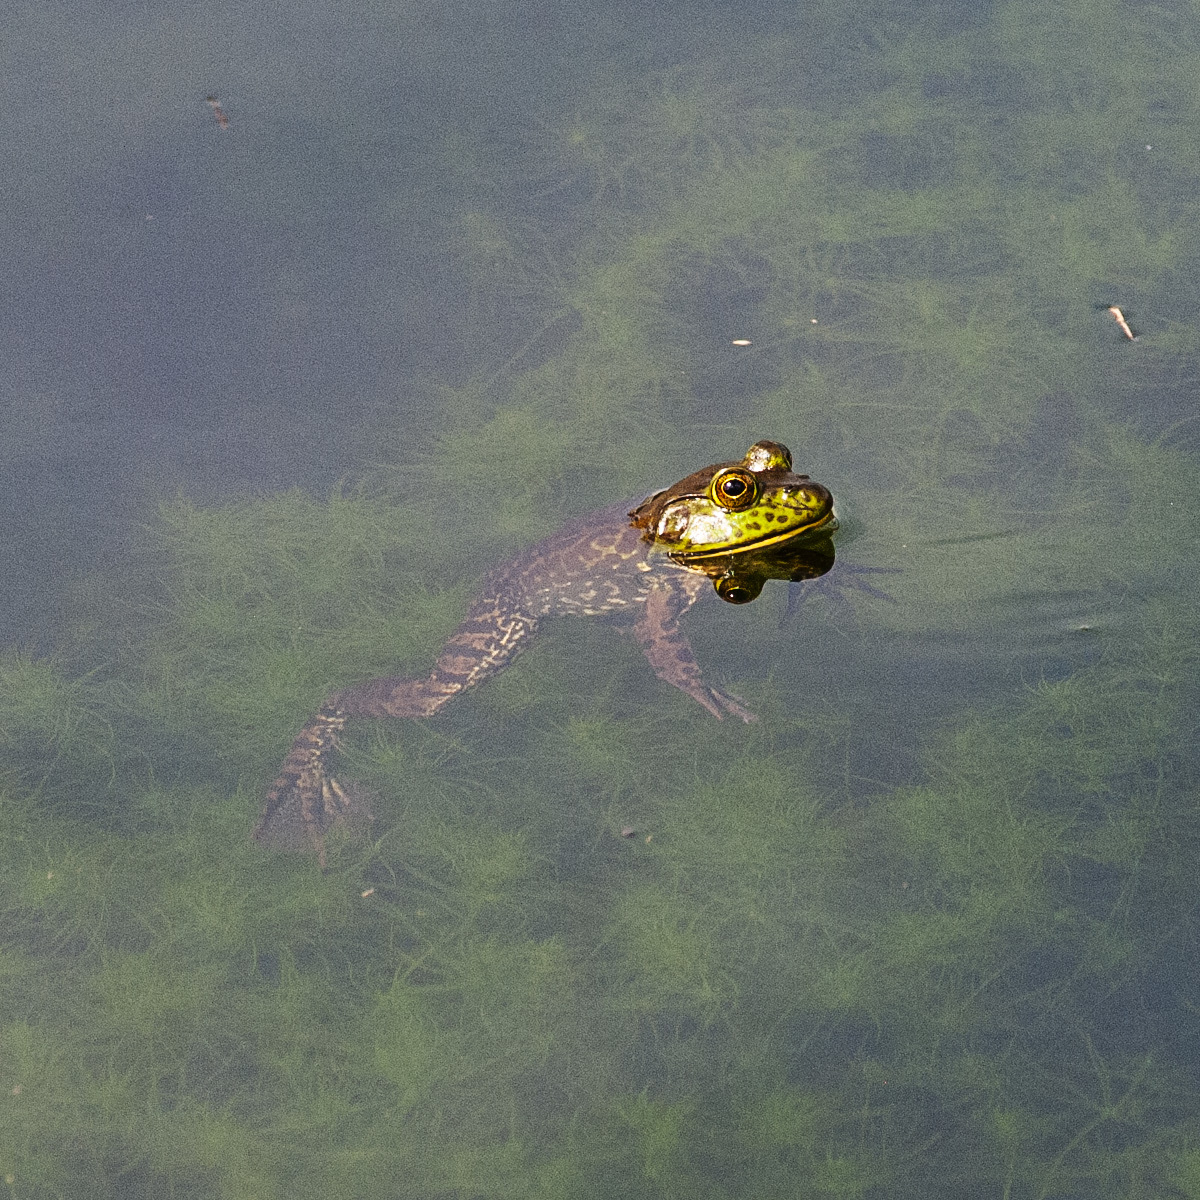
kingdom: Animalia
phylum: Chordata
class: Amphibia
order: Anura
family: Ranidae
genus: Lithobates
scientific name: Lithobates catesbeianus
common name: American bullfrog
